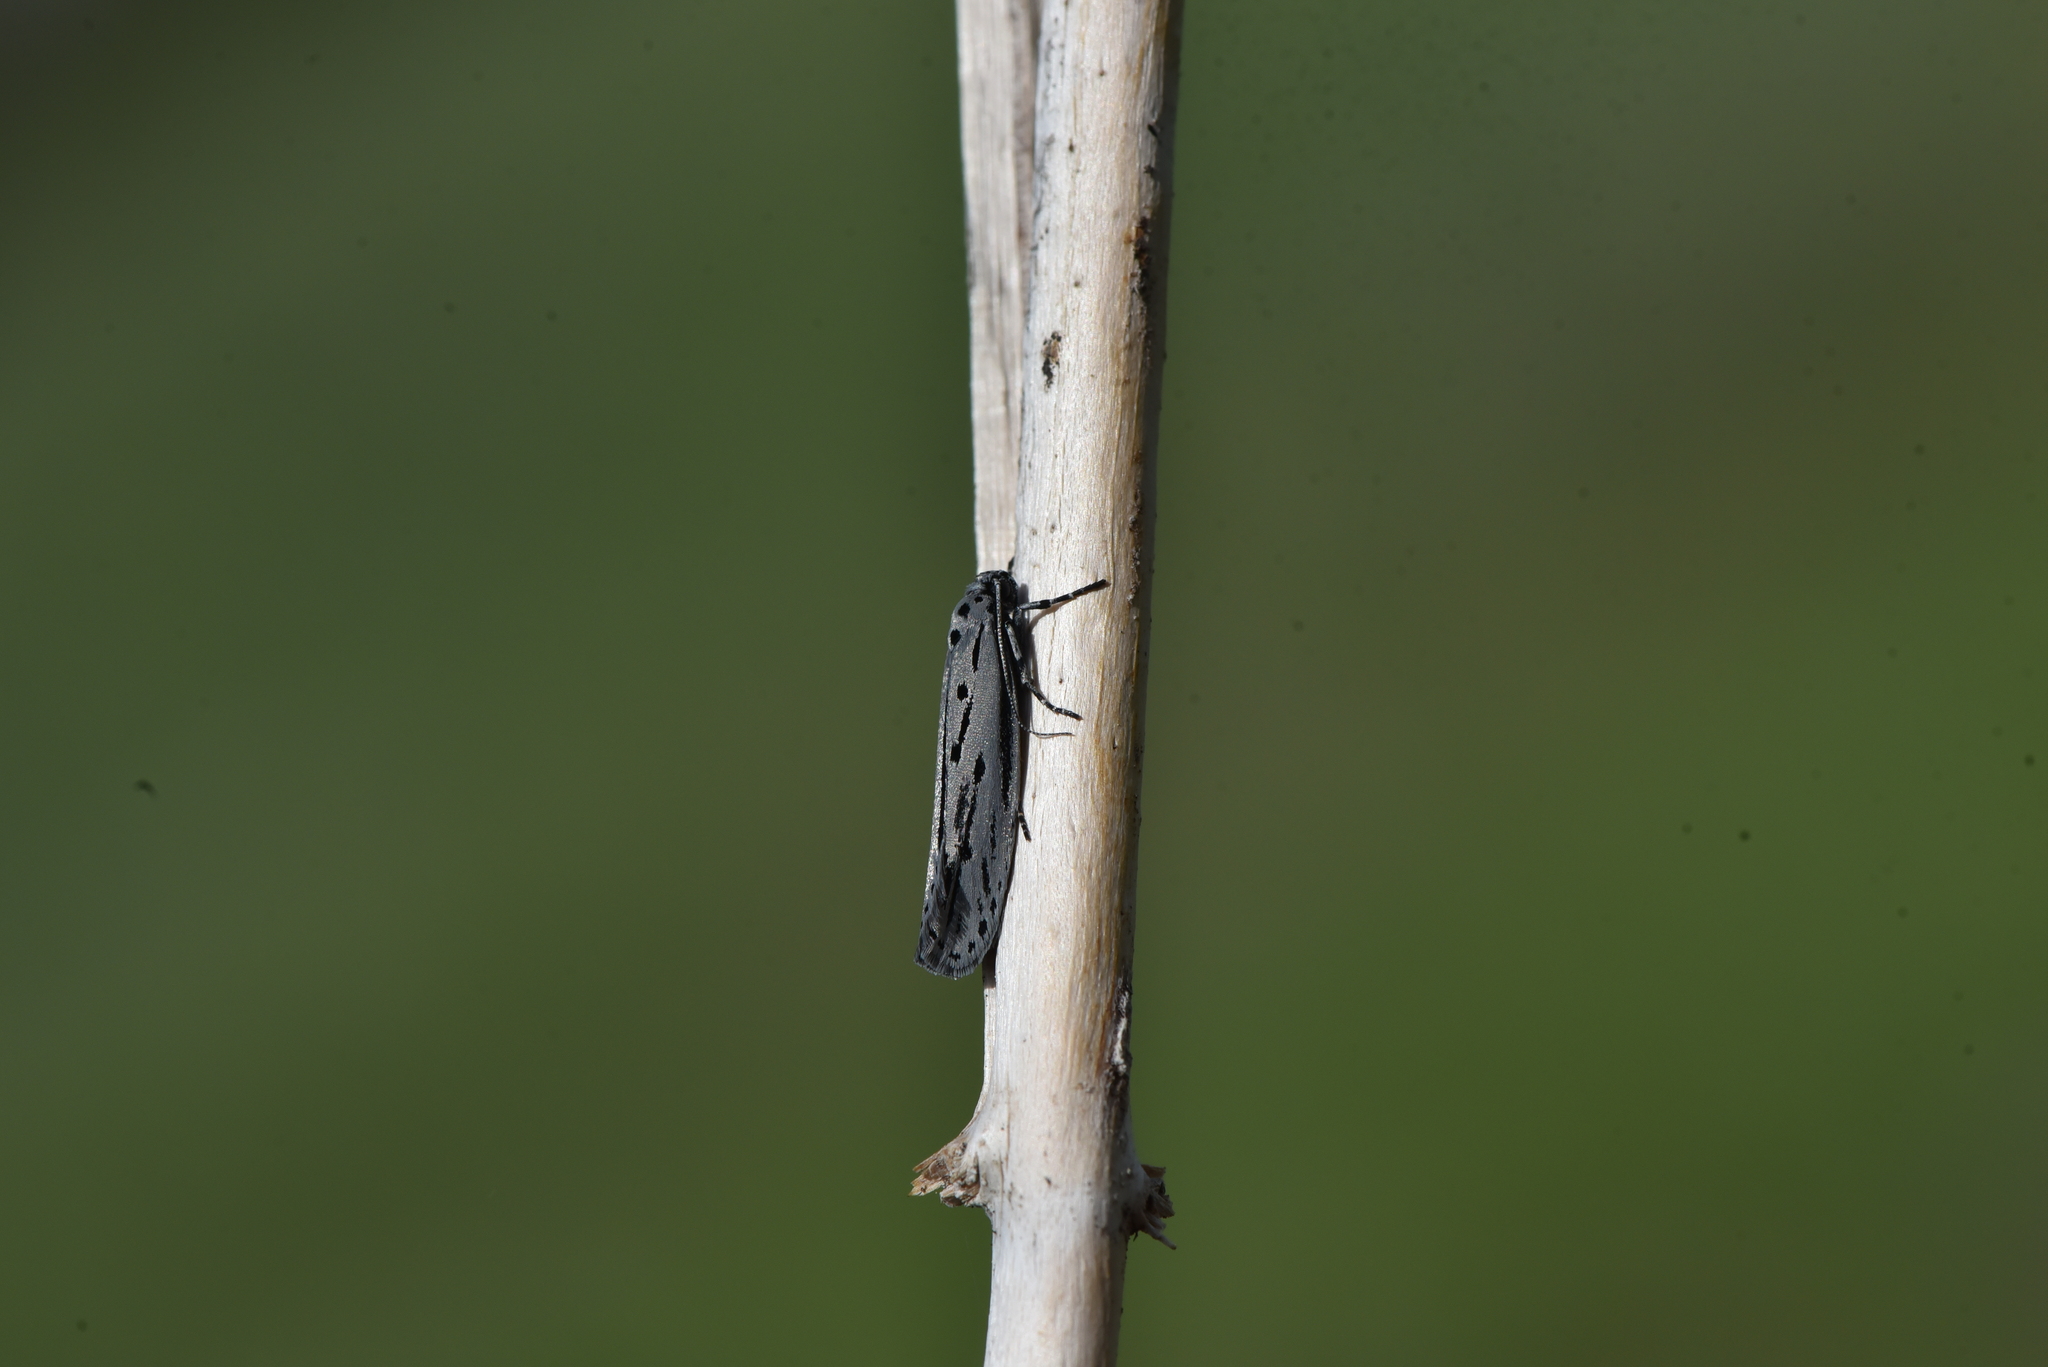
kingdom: Animalia
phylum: Arthropoda
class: Insecta
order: Lepidoptera
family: Ethmiidae
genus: Ethmia
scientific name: Ethmia monticola
